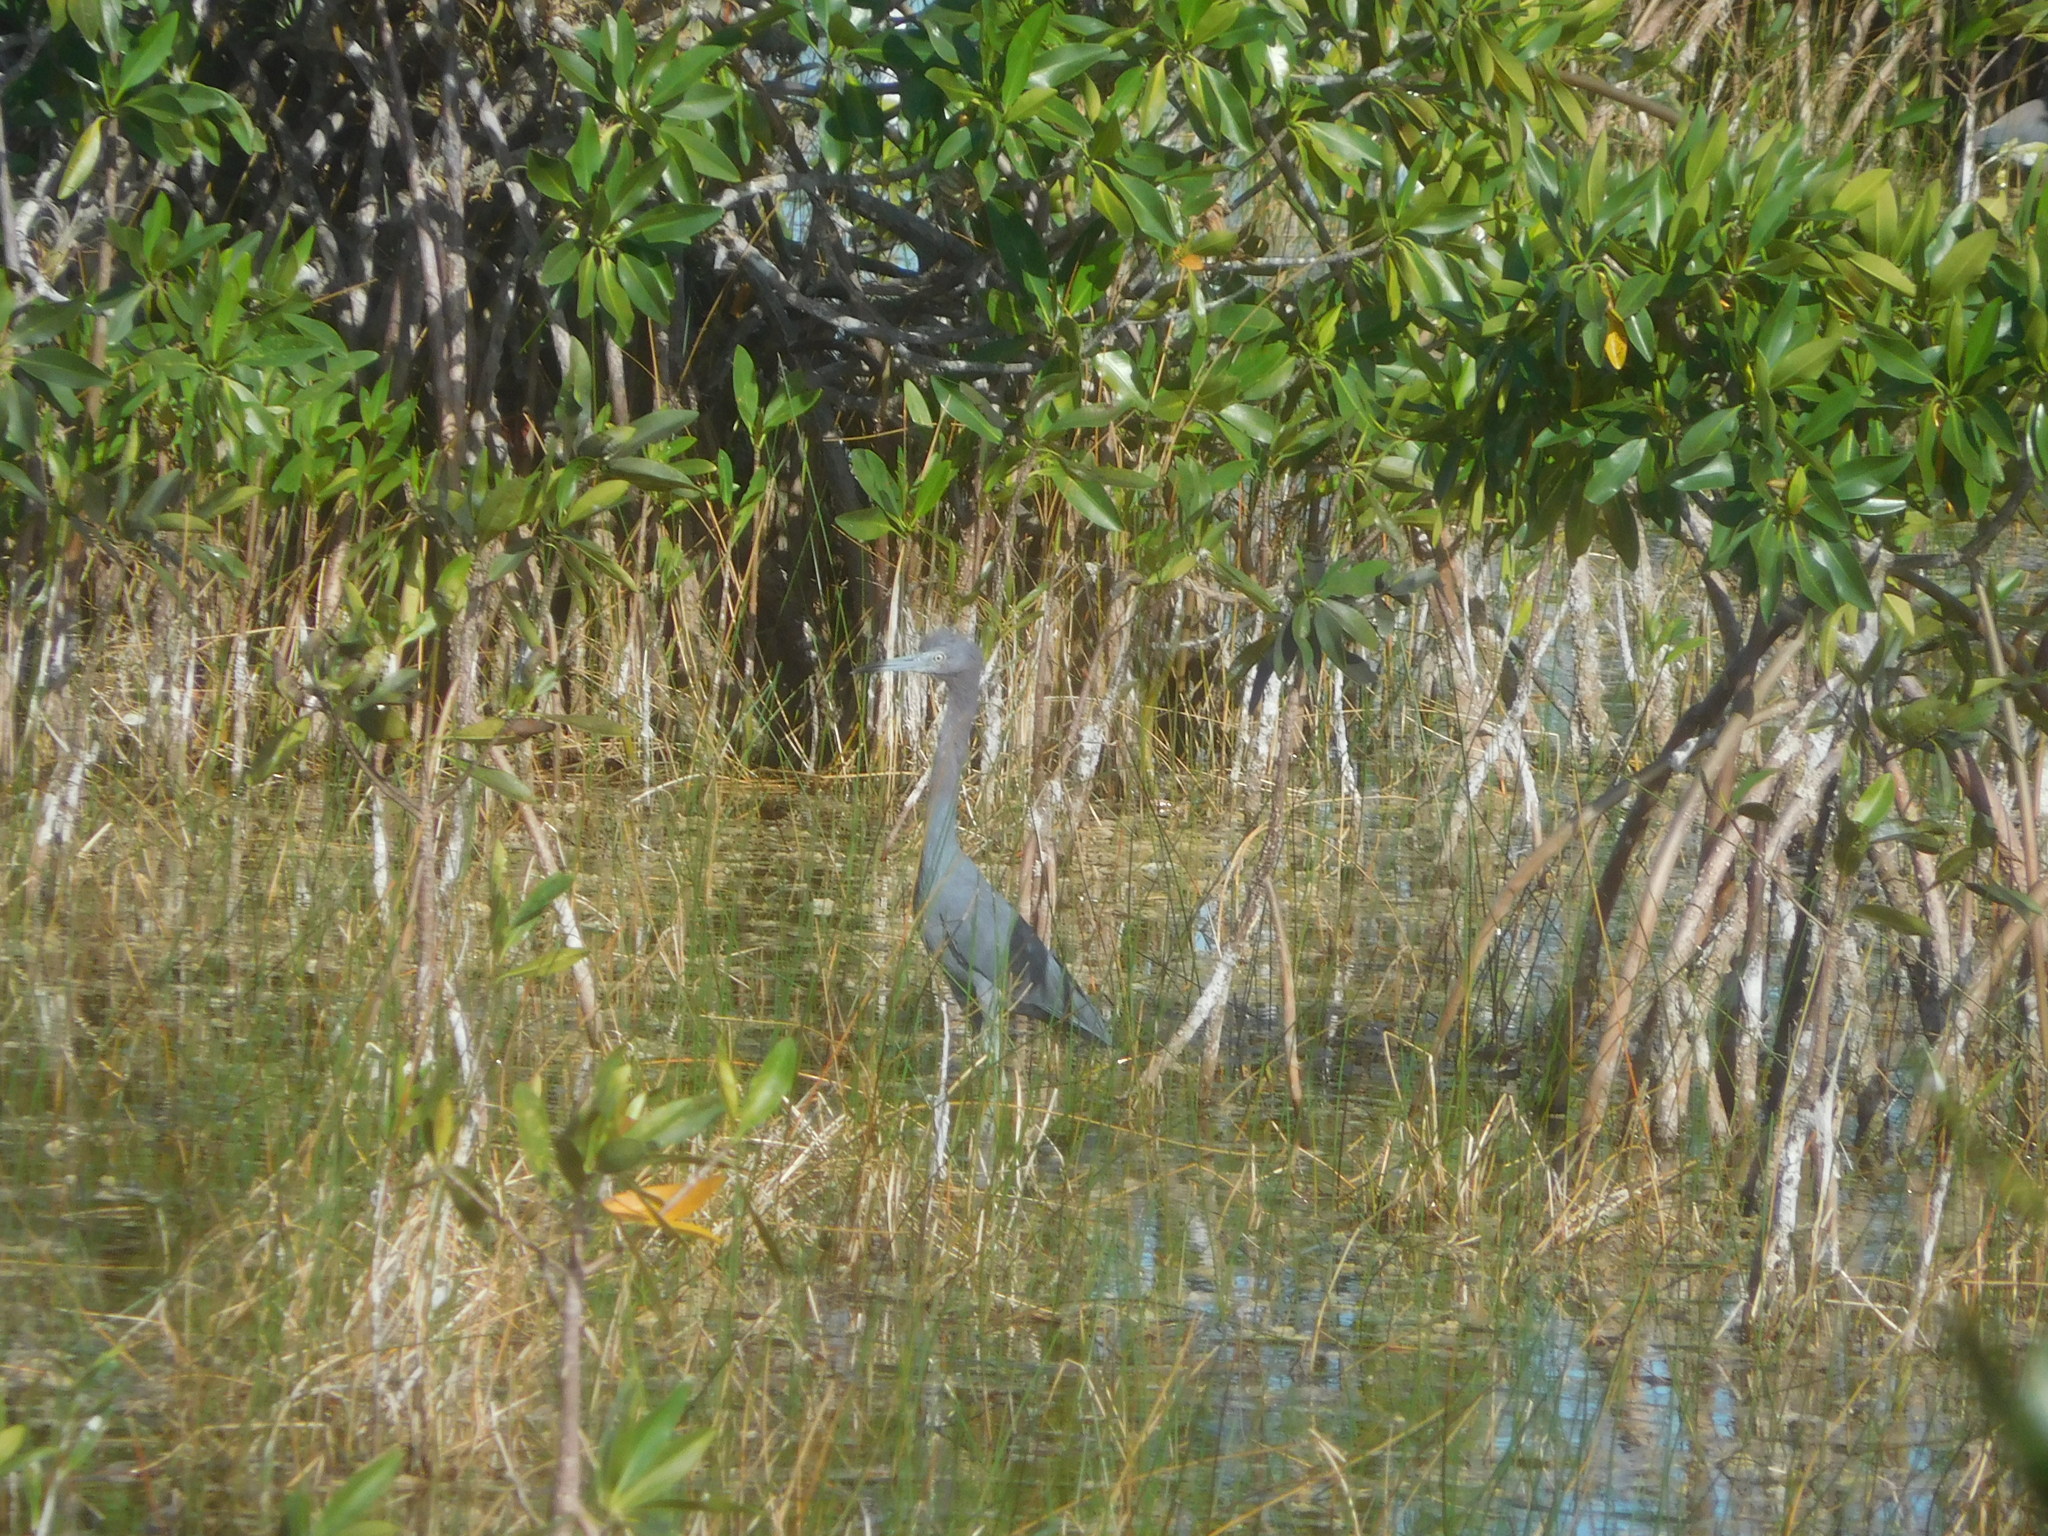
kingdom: Animalia
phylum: Chordata
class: Aves
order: Pelecaniformes
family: Ardeidae
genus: Egretta
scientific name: Egretta caerulea
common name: Little blue heron
